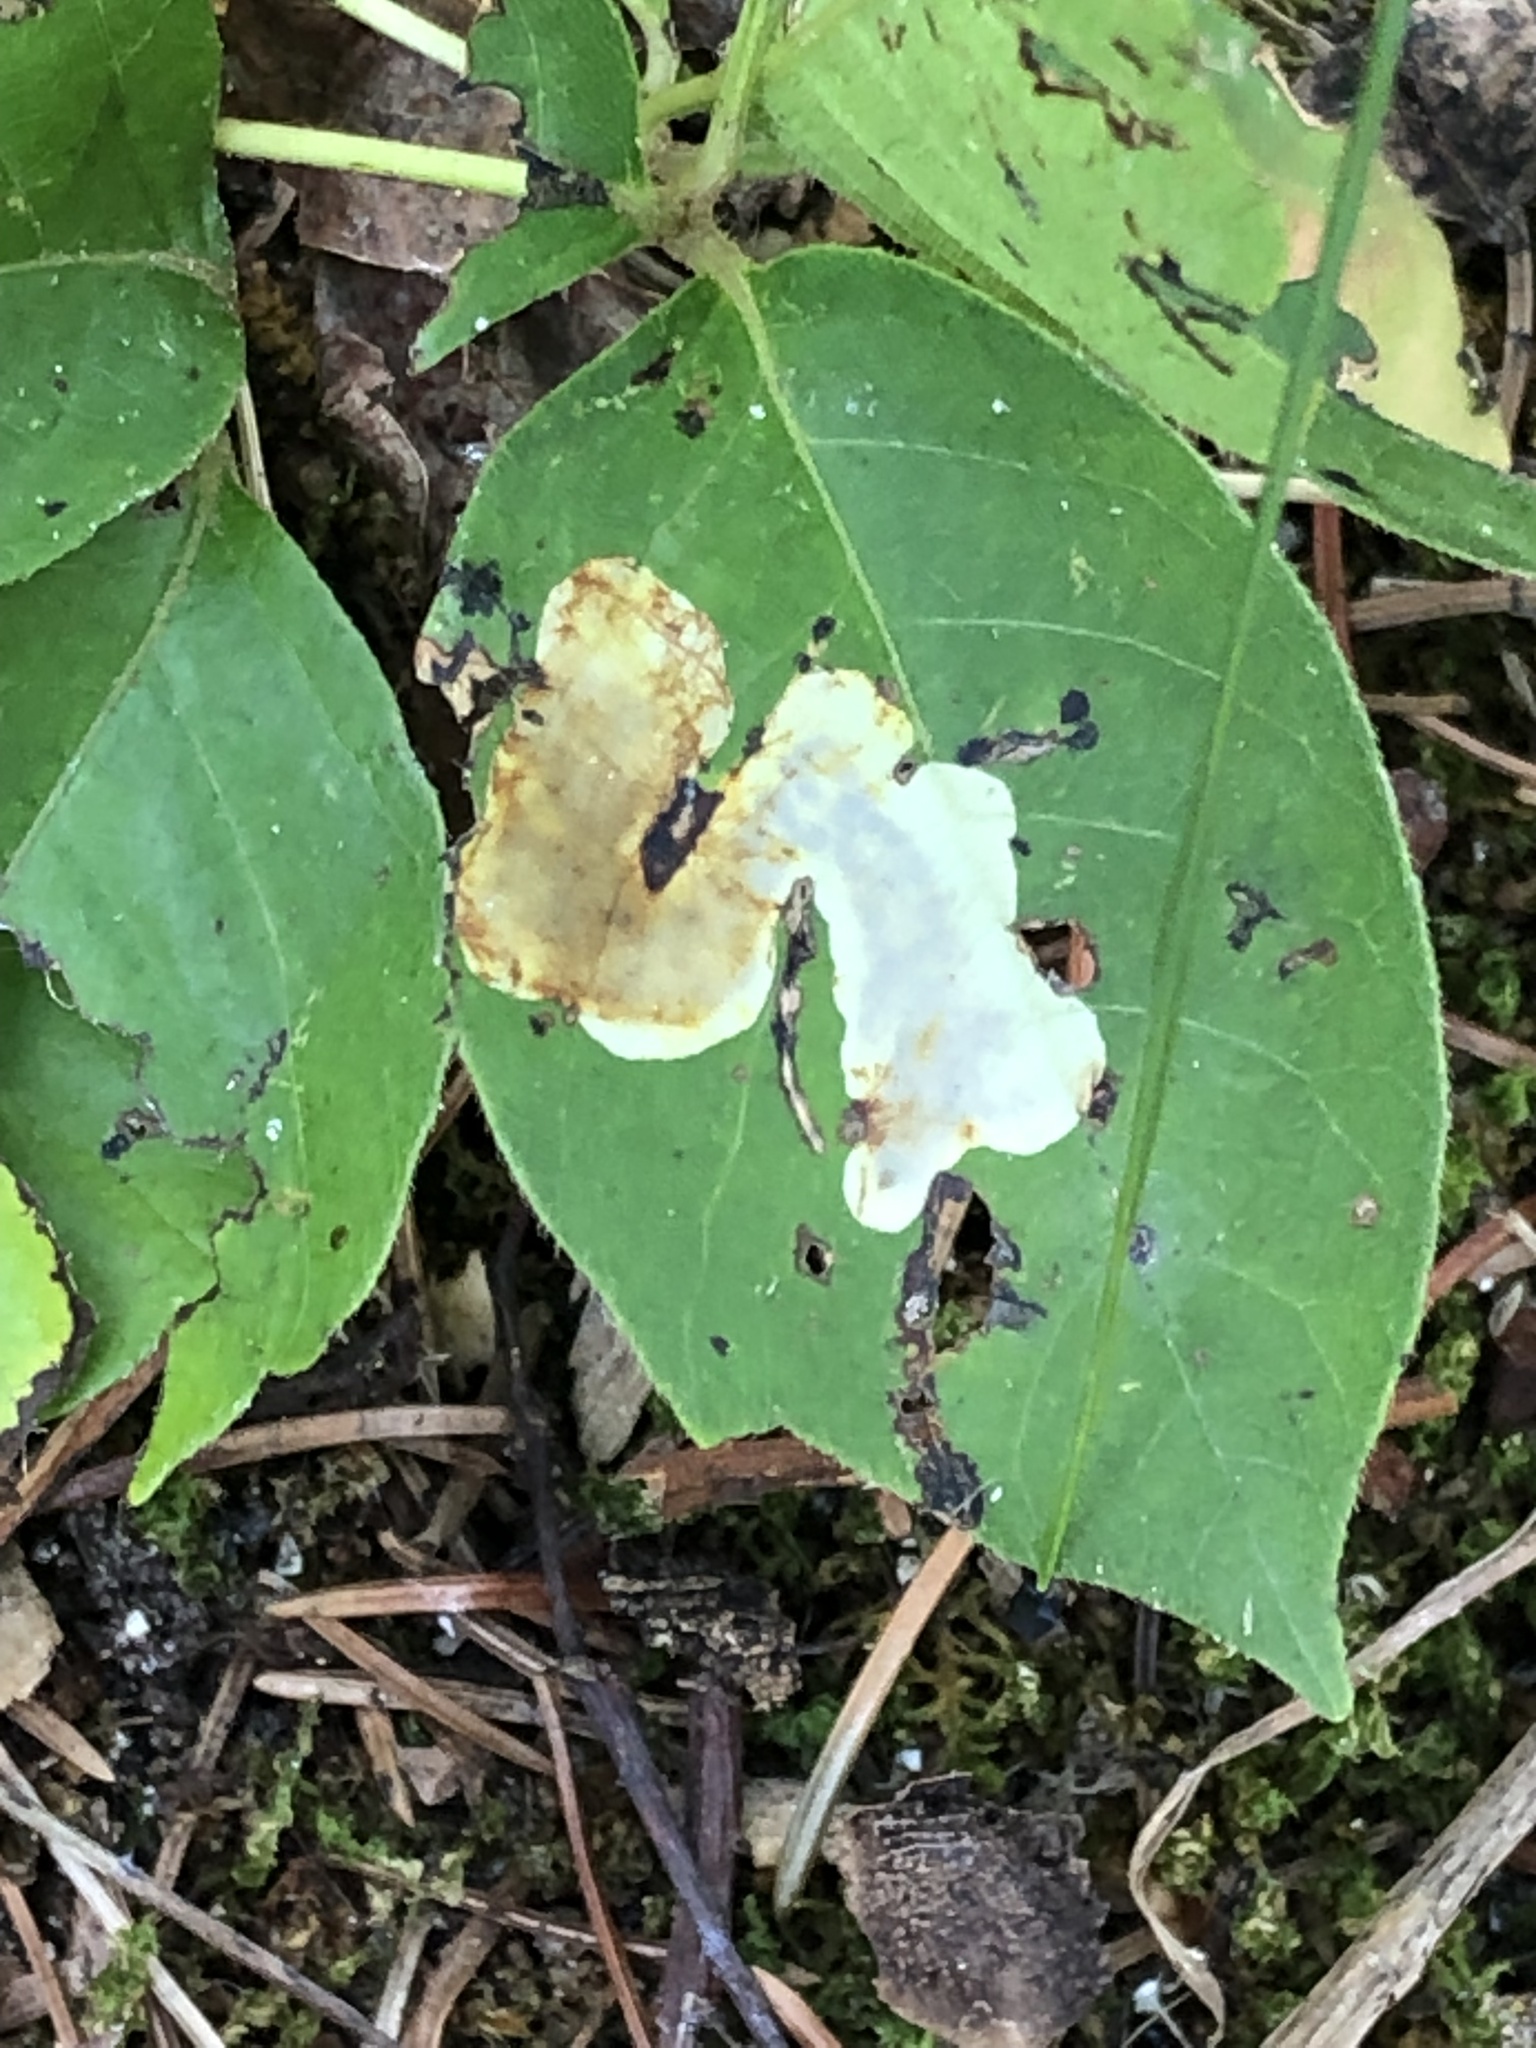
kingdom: Animalia
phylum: Arthropoda
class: Insecta
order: Lepidoptera
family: Gracillariidae
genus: Cameraria
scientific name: Cameraria guttifinitella
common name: Poison ivy leaf-miner moth
